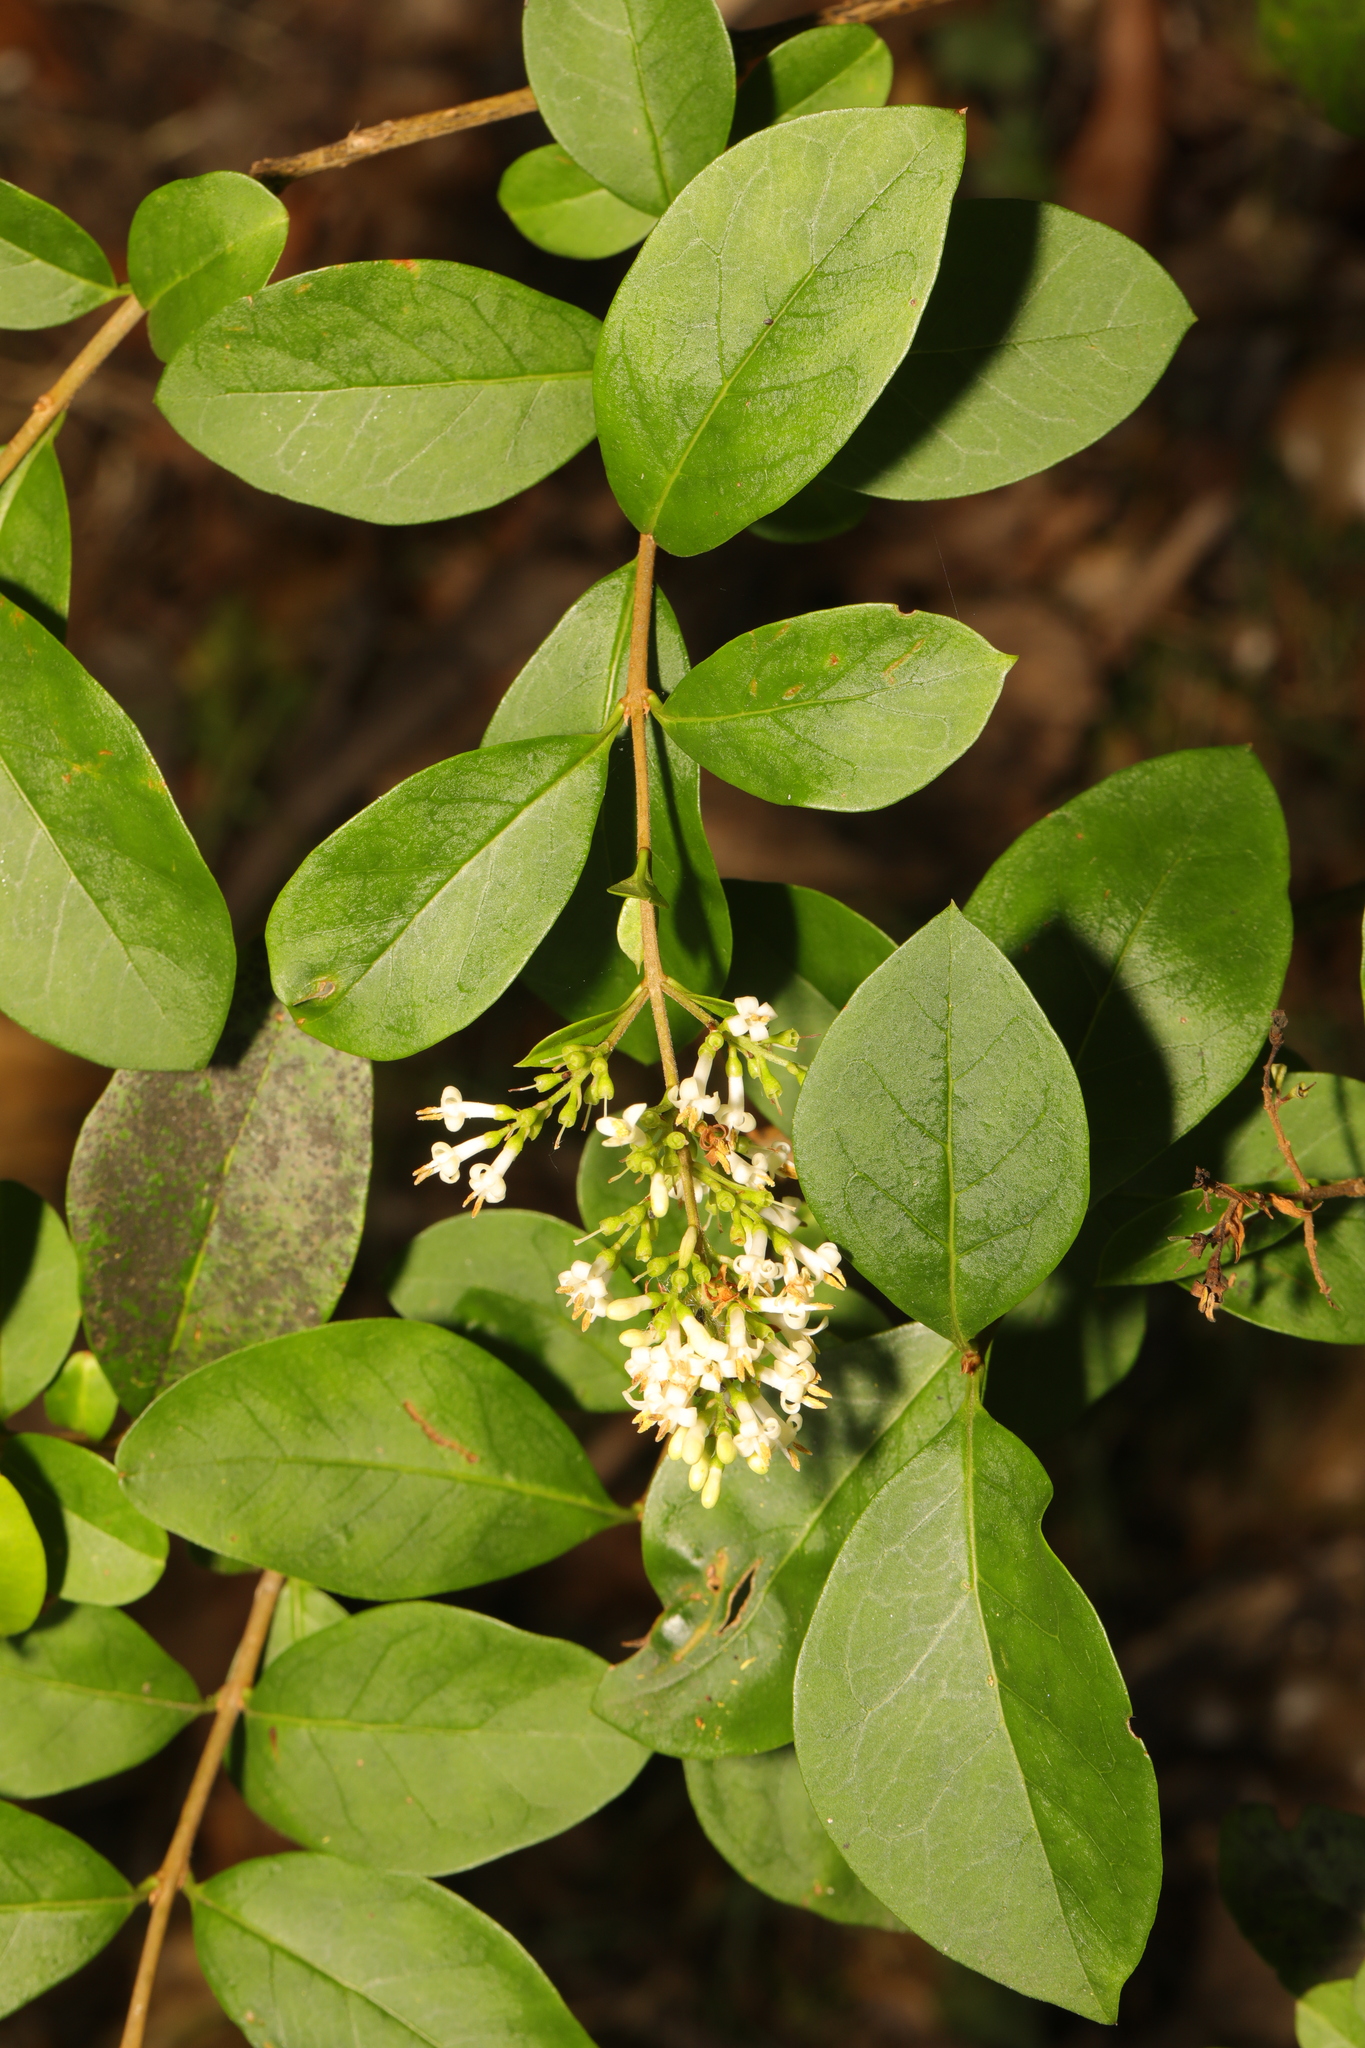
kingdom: Plantae
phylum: Tracheophyta
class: Magnoliopsida
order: Lamiales
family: Oleaceae
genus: Ligustrum
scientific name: Ligustrum ovalifolium
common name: California privet
